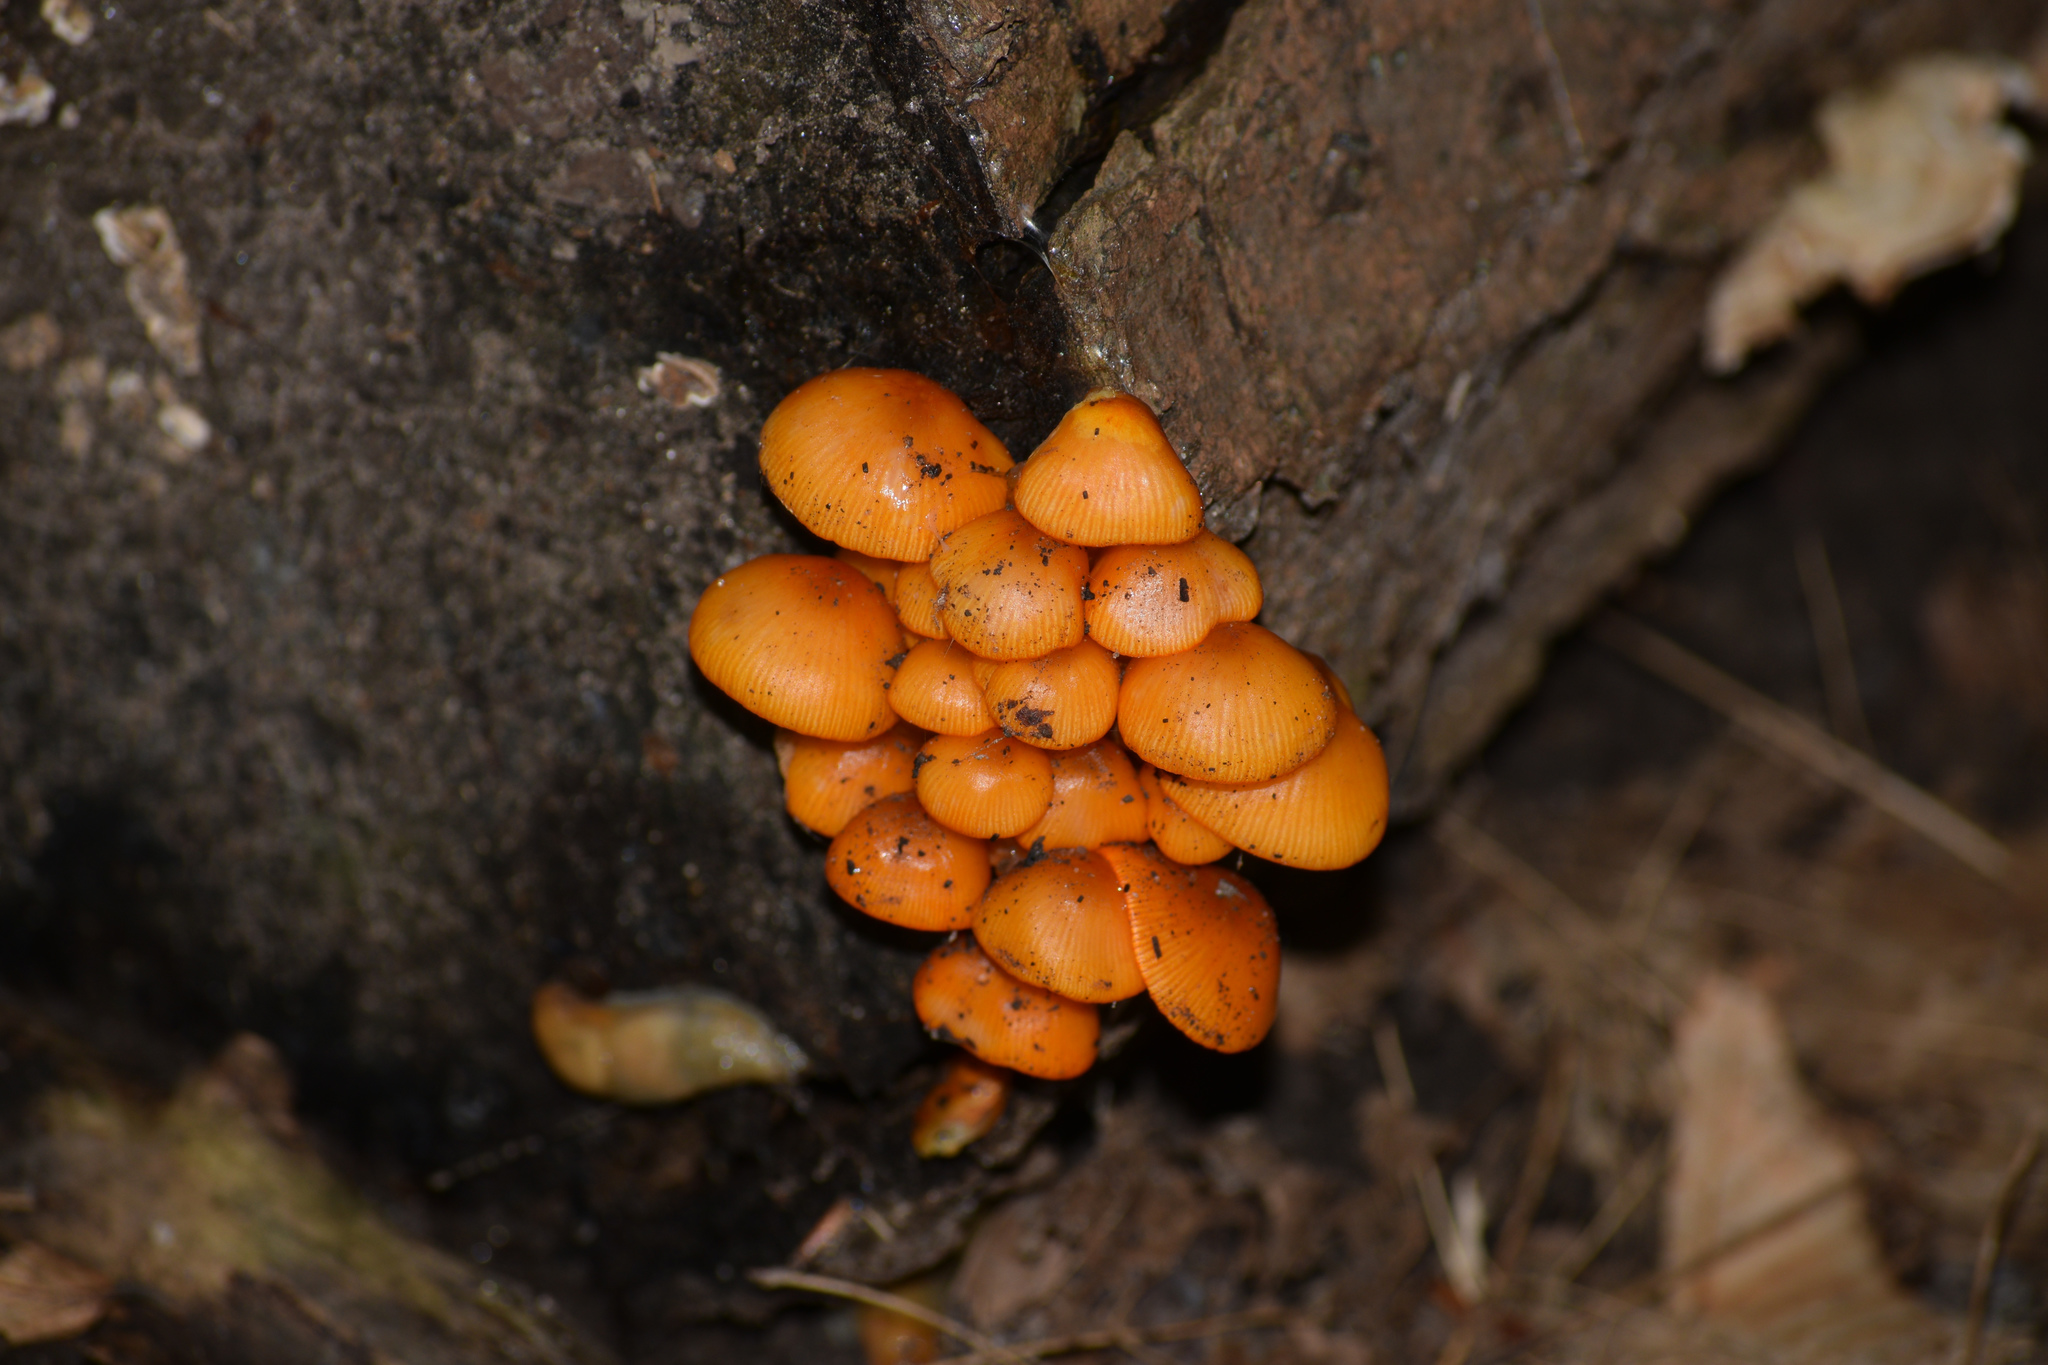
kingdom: Fungi
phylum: Basidiomycota
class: Agaricomycetes
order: Agaricales
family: Mycenaceae
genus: Mycena
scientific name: Mycena leaiana
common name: Orange mycena
